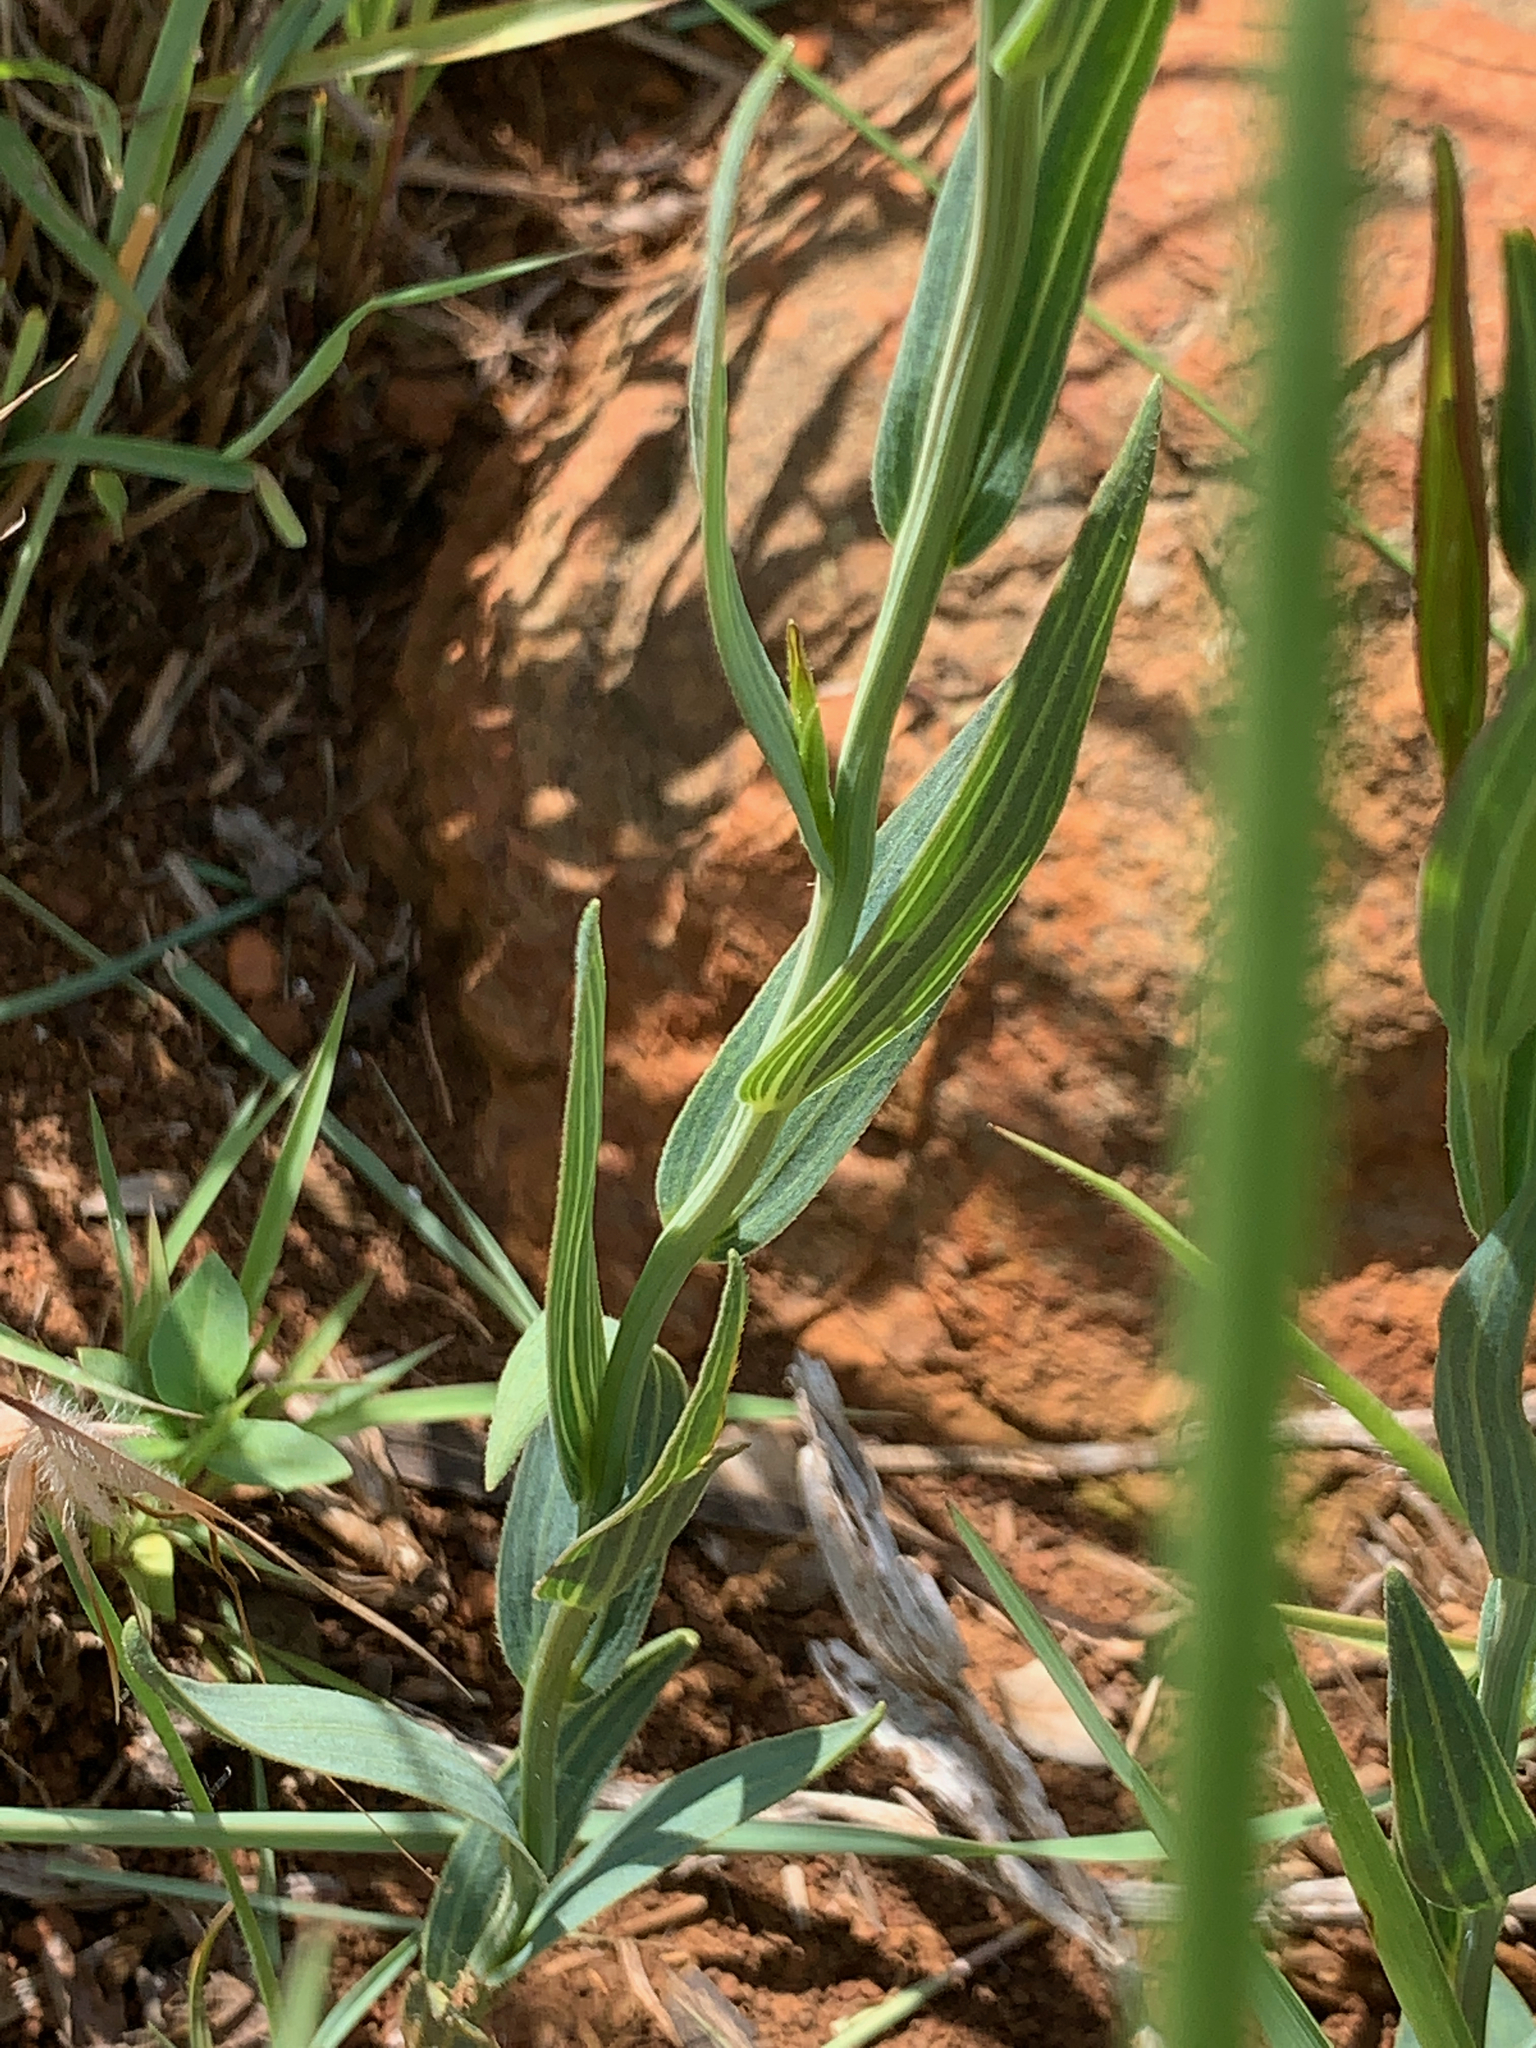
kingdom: Plantae
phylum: Tracheophyta
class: Magnoliopsida
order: Asterales
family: Asteraceae
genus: Afroaster
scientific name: Afroaster serrulatus
